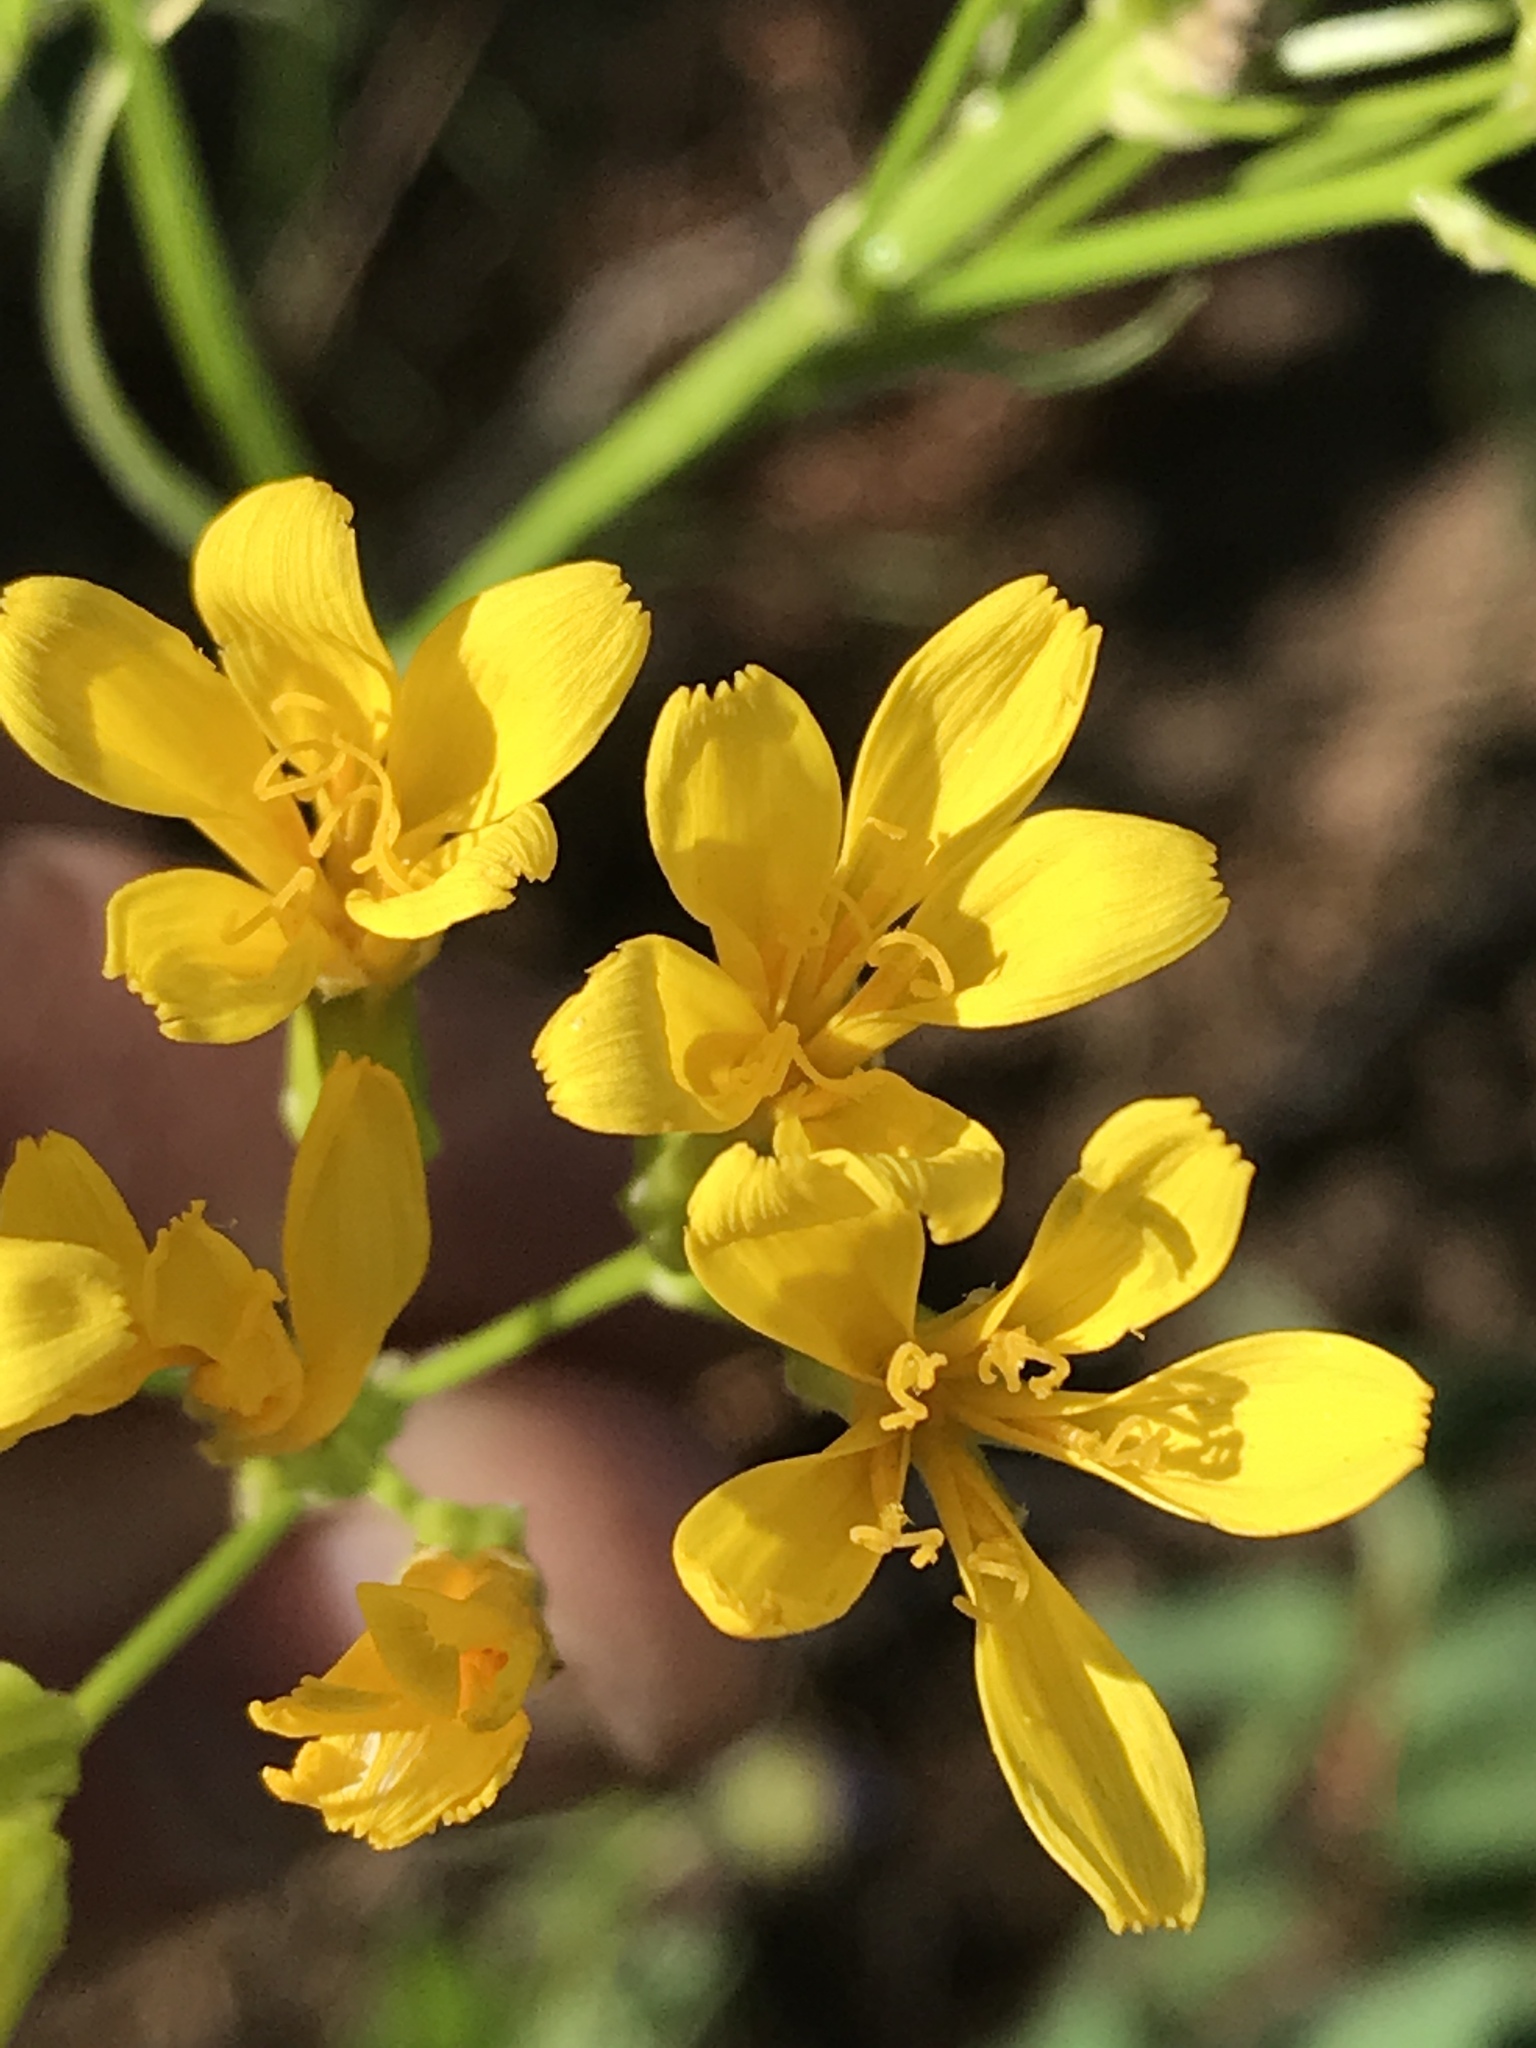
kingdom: Plantae
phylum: Tracheophyta
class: Magnoliopsida
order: Asterales
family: Asteraceae
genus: Crepis
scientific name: Crepis acuminata
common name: Longleaf hawk's-beard
